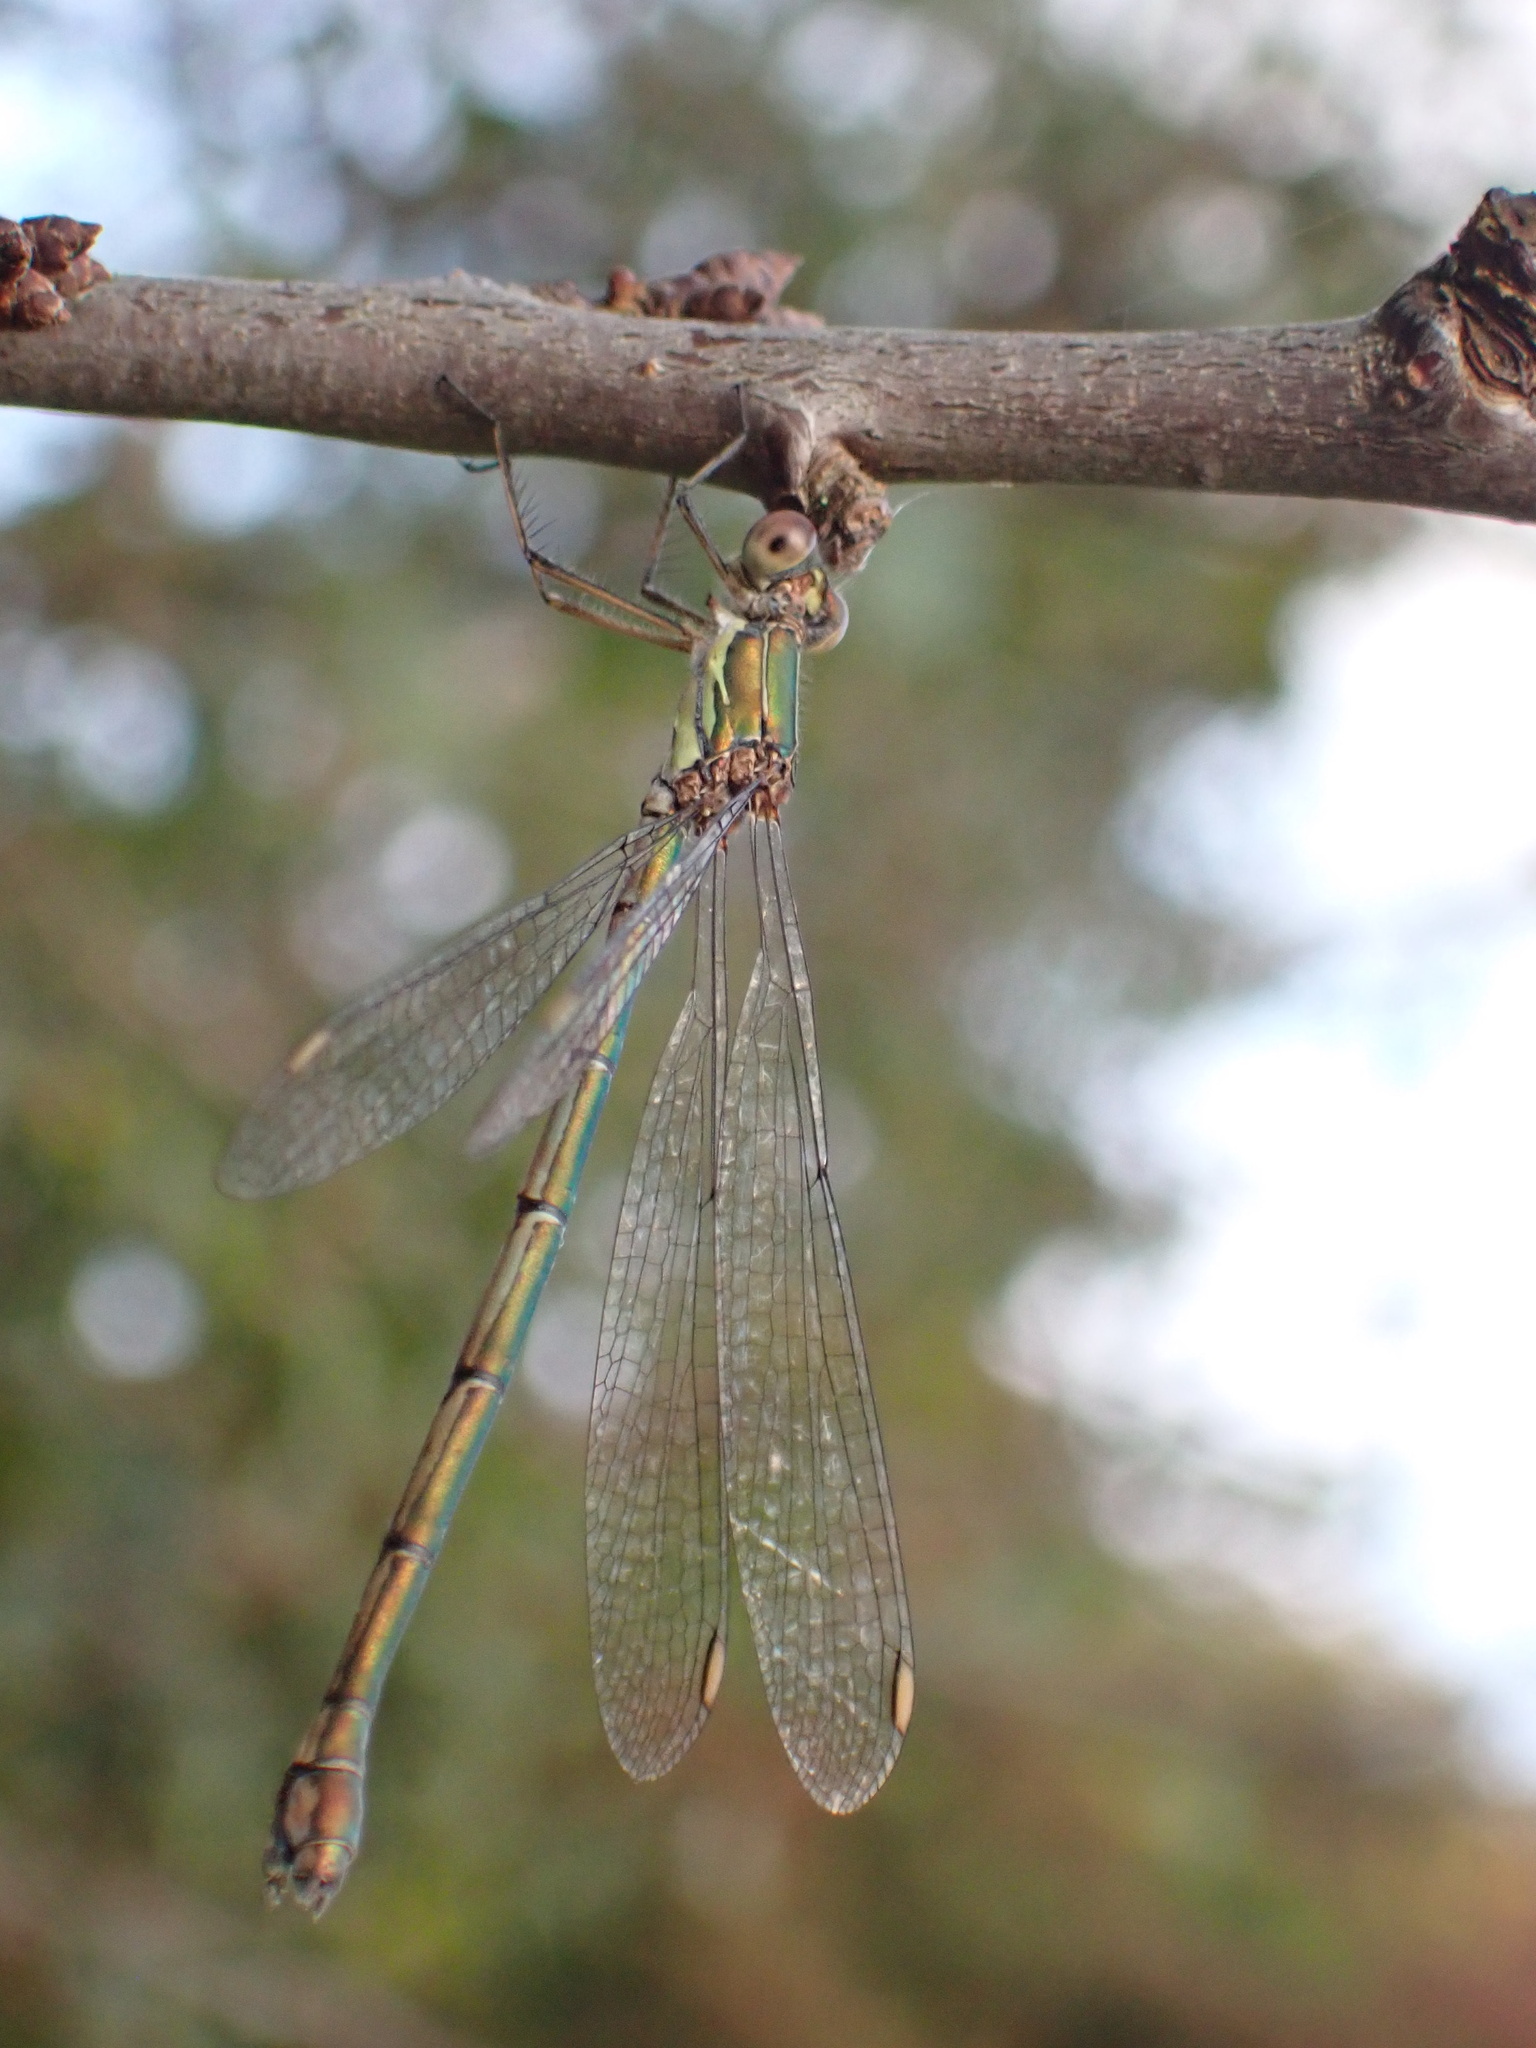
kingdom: Animalia
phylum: Arthropoda
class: Insecta
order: Odonata
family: Lestidae
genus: Chalcolestes
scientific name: Chalcolestes viridis
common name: Green emerald damselfly
